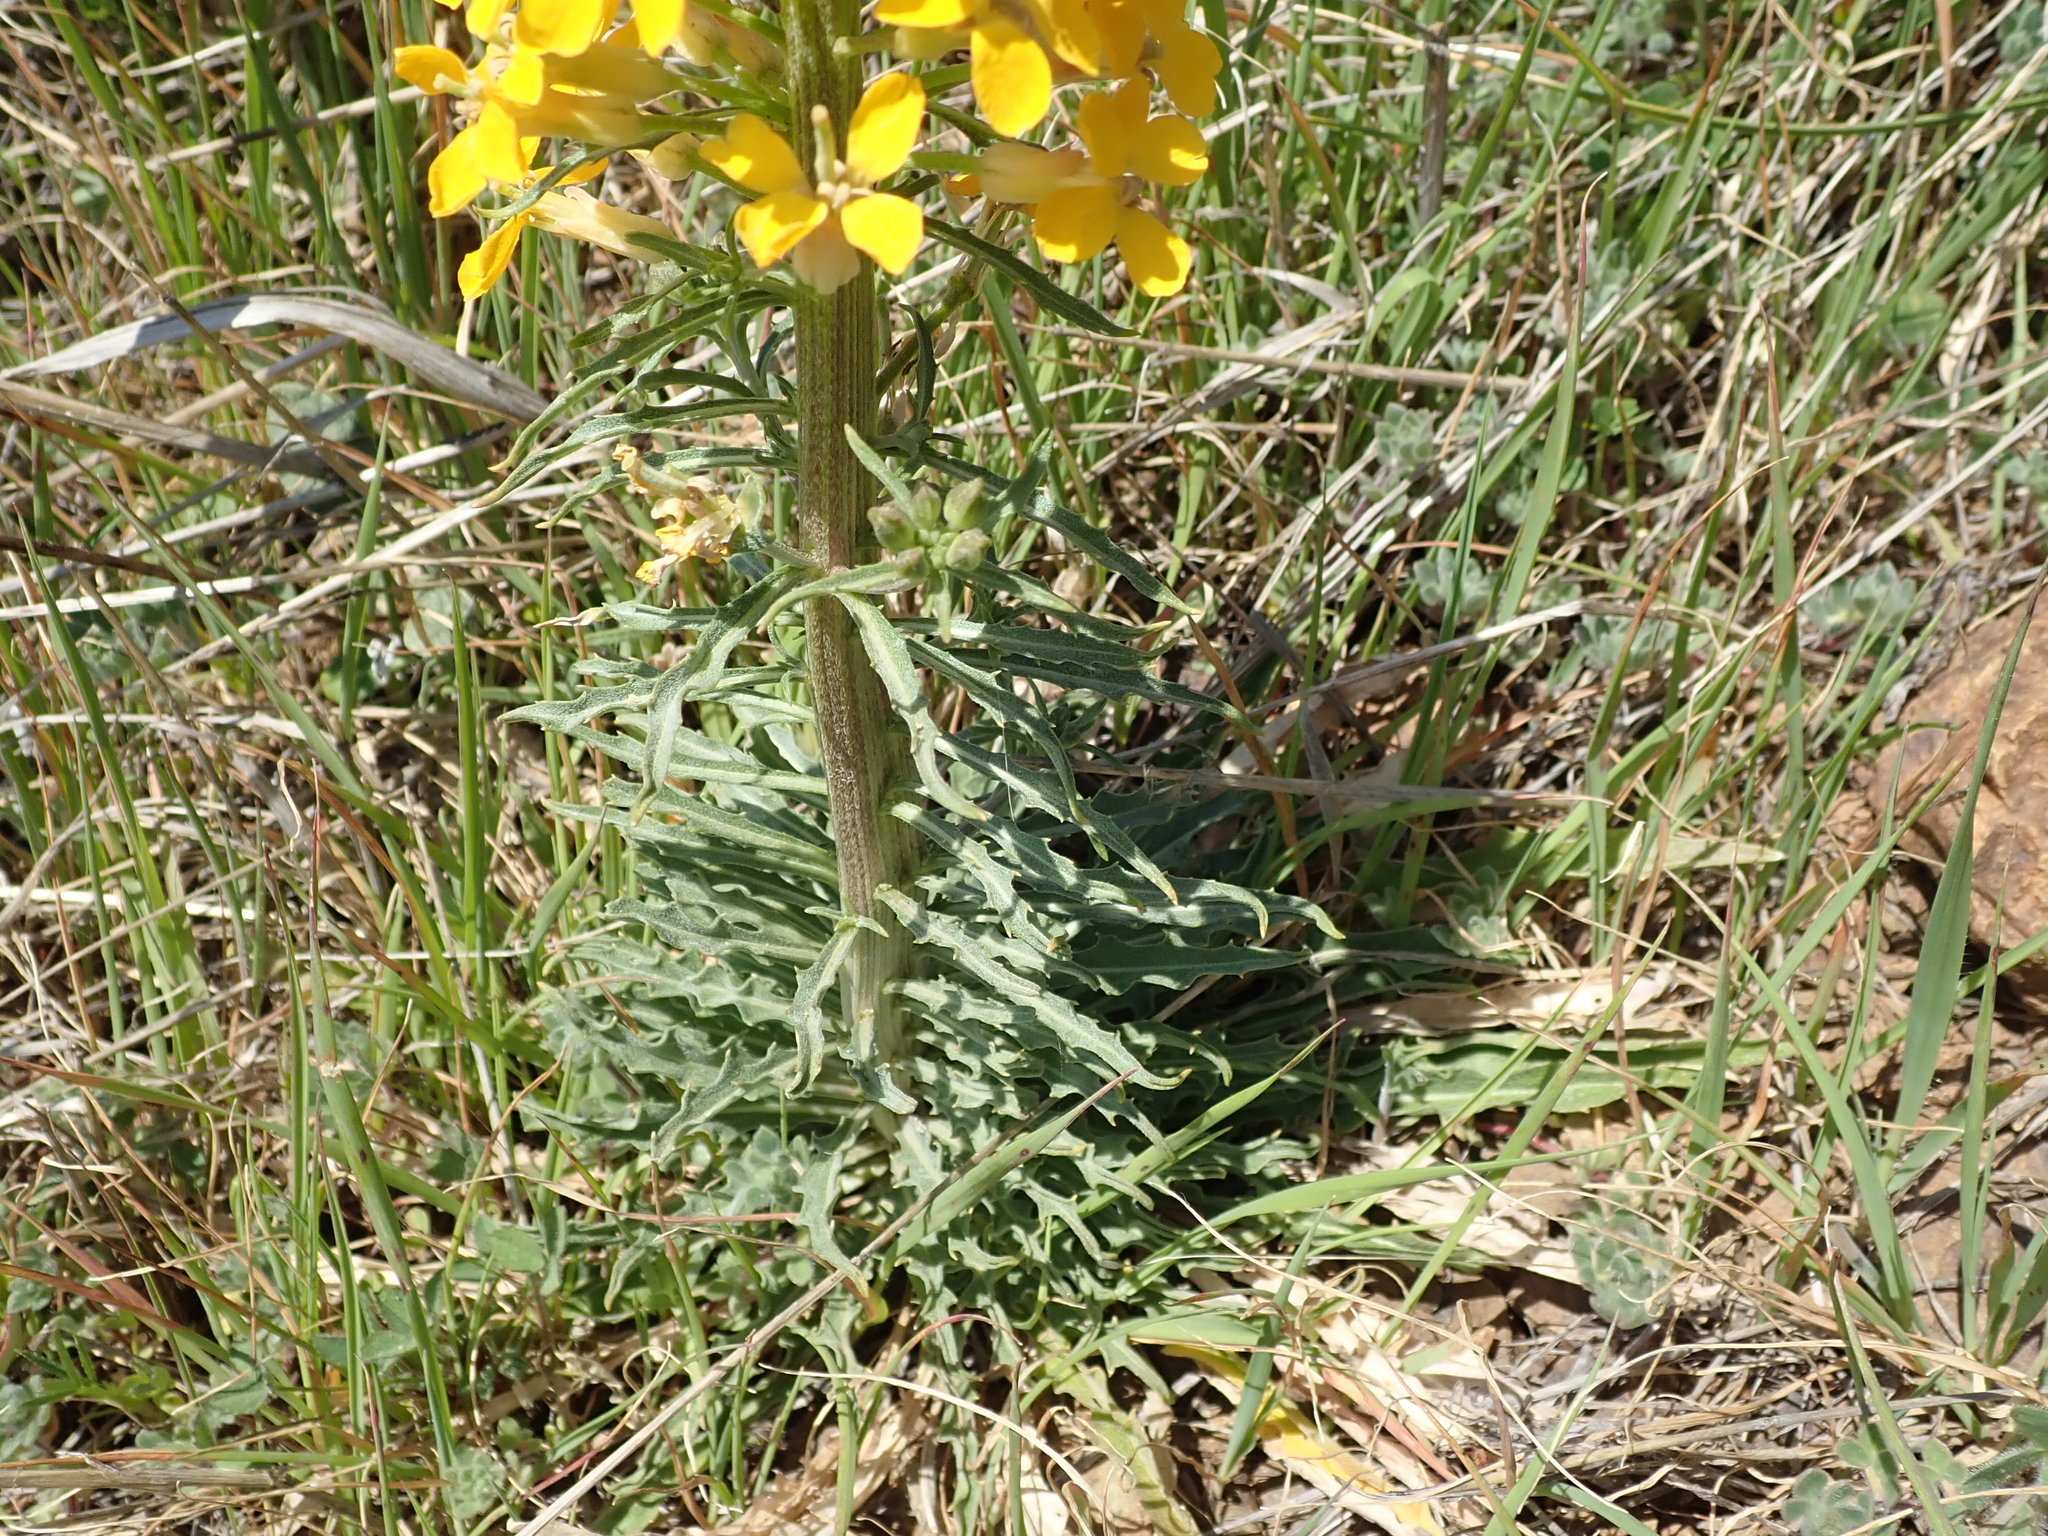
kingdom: Plantae
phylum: Tracheophyta
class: Magnoliopsida
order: Brassicales
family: Brassicaceae
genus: Erysimum
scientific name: Erysimum capitatum
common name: Western wallflower
